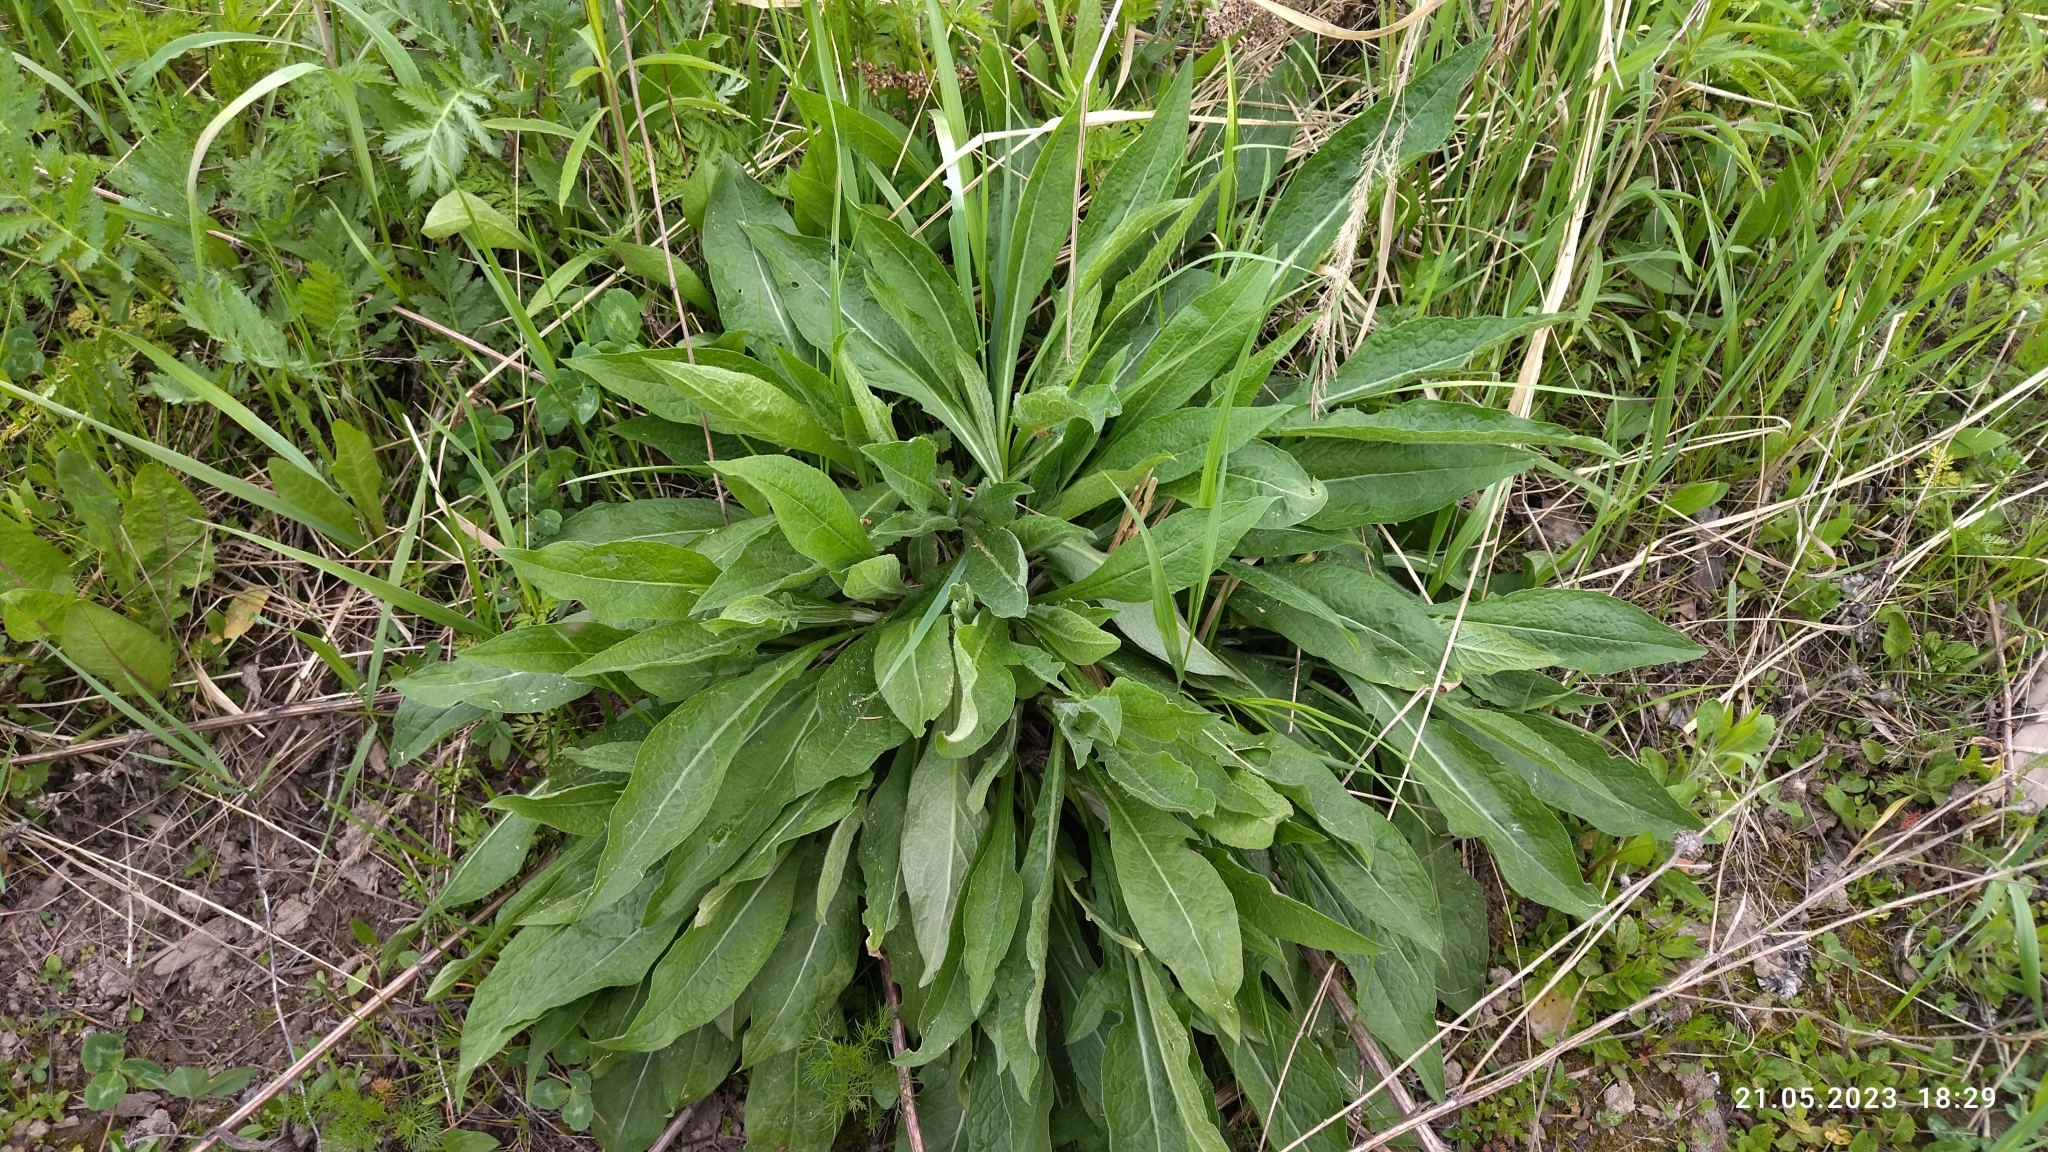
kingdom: Plantae
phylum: Tracheophyta
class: Magnoliopsida
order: Asterales
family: Asteraceae
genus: Centaurea
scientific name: Centaurea jacea
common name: Brown knapweed
